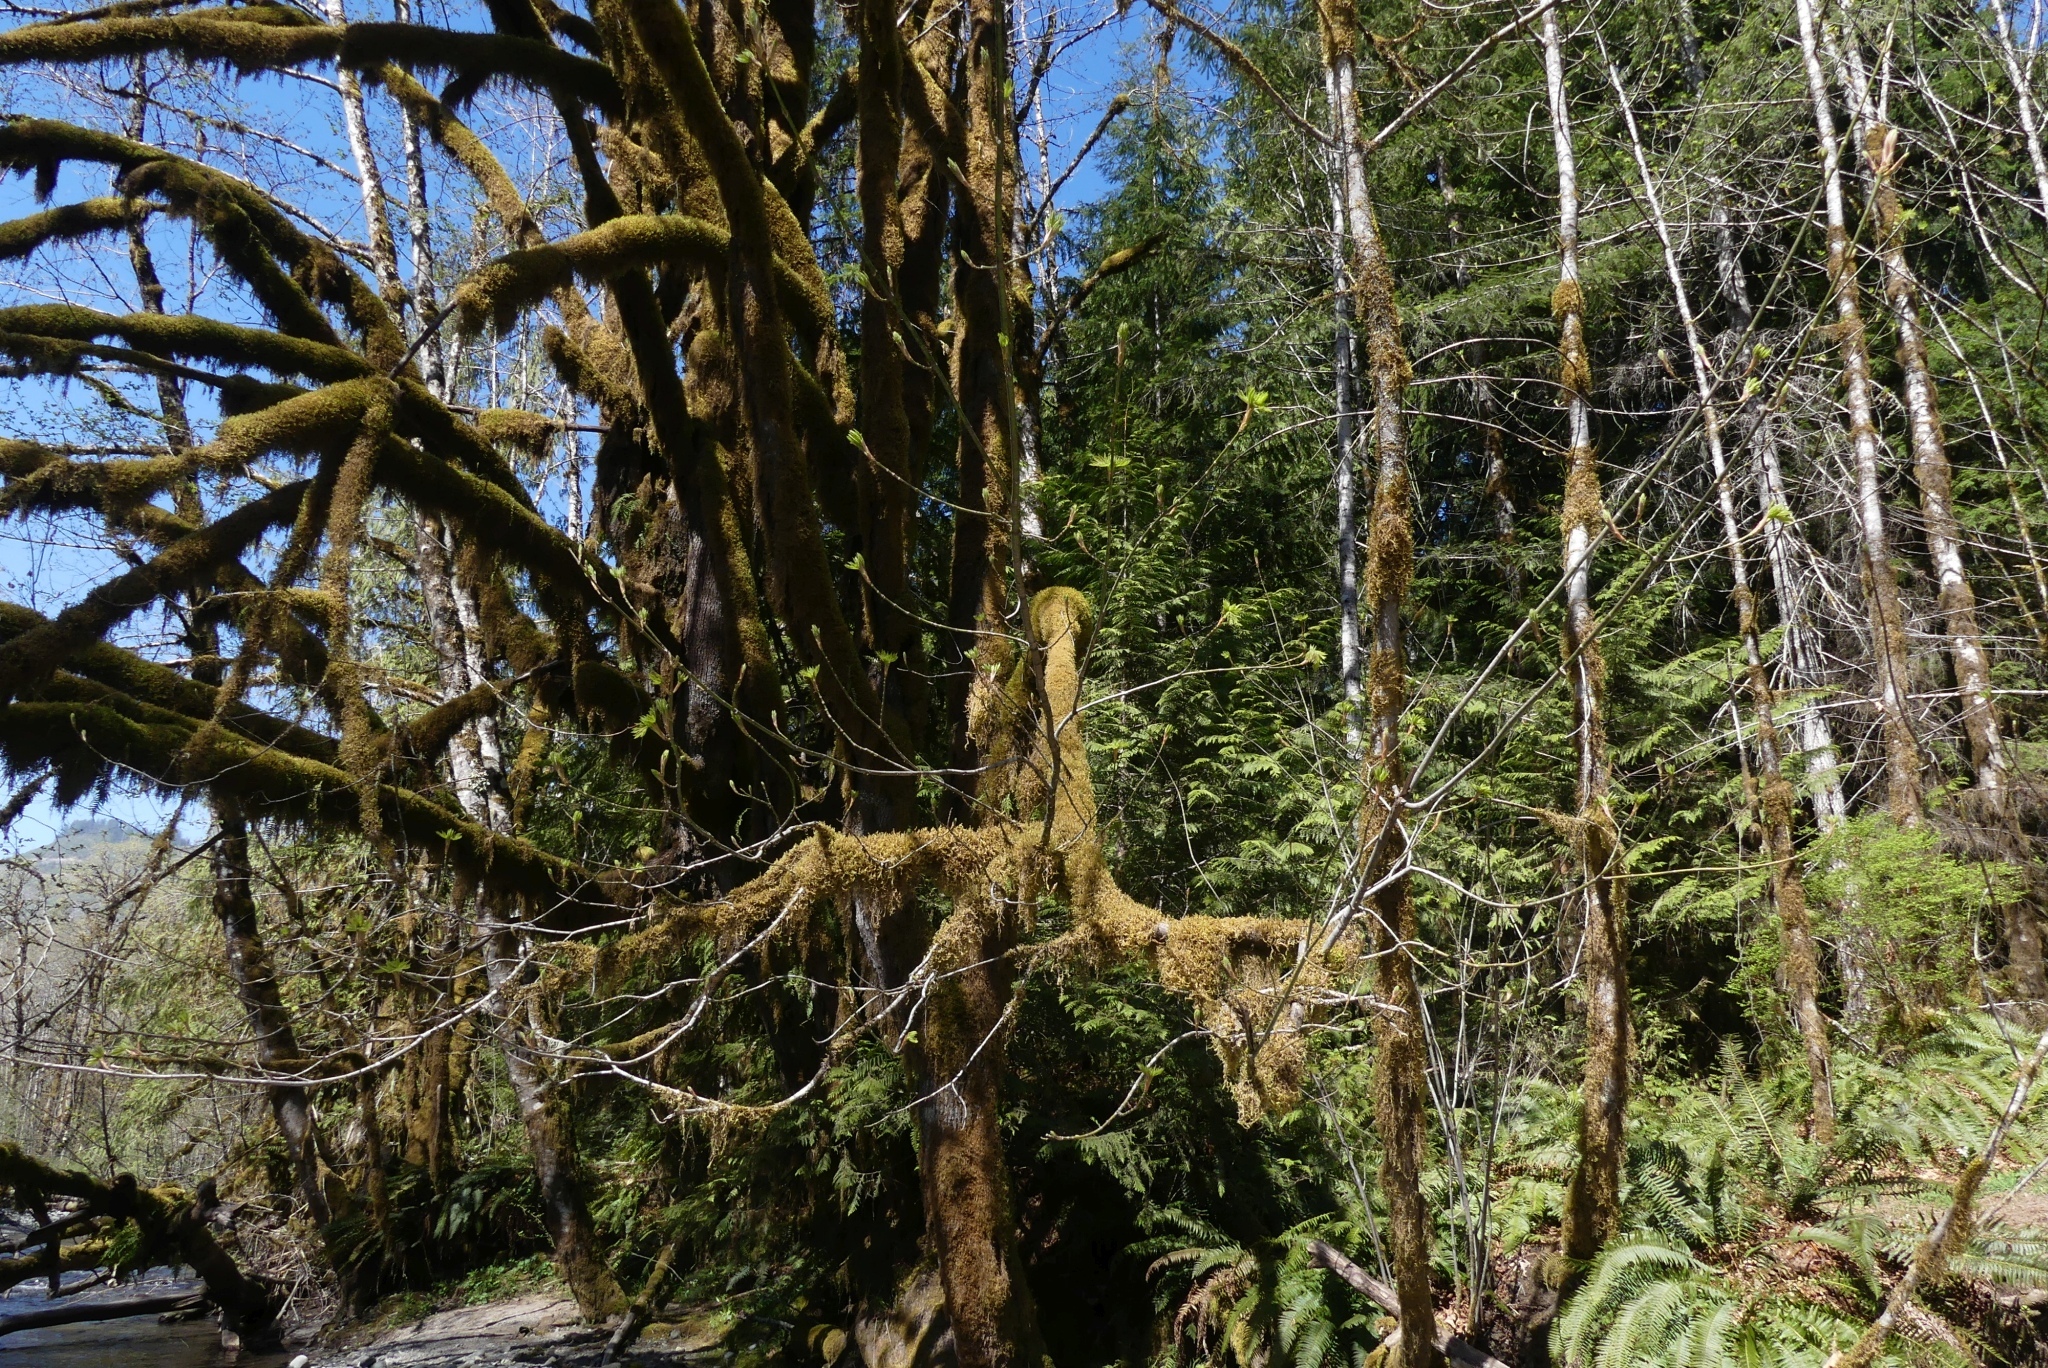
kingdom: Plantae
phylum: Tracheophyta
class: Magnoliopsida
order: Sapindales
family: Sapindaceae
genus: Acer
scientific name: Acer macrophyllum
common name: Oregon maple
